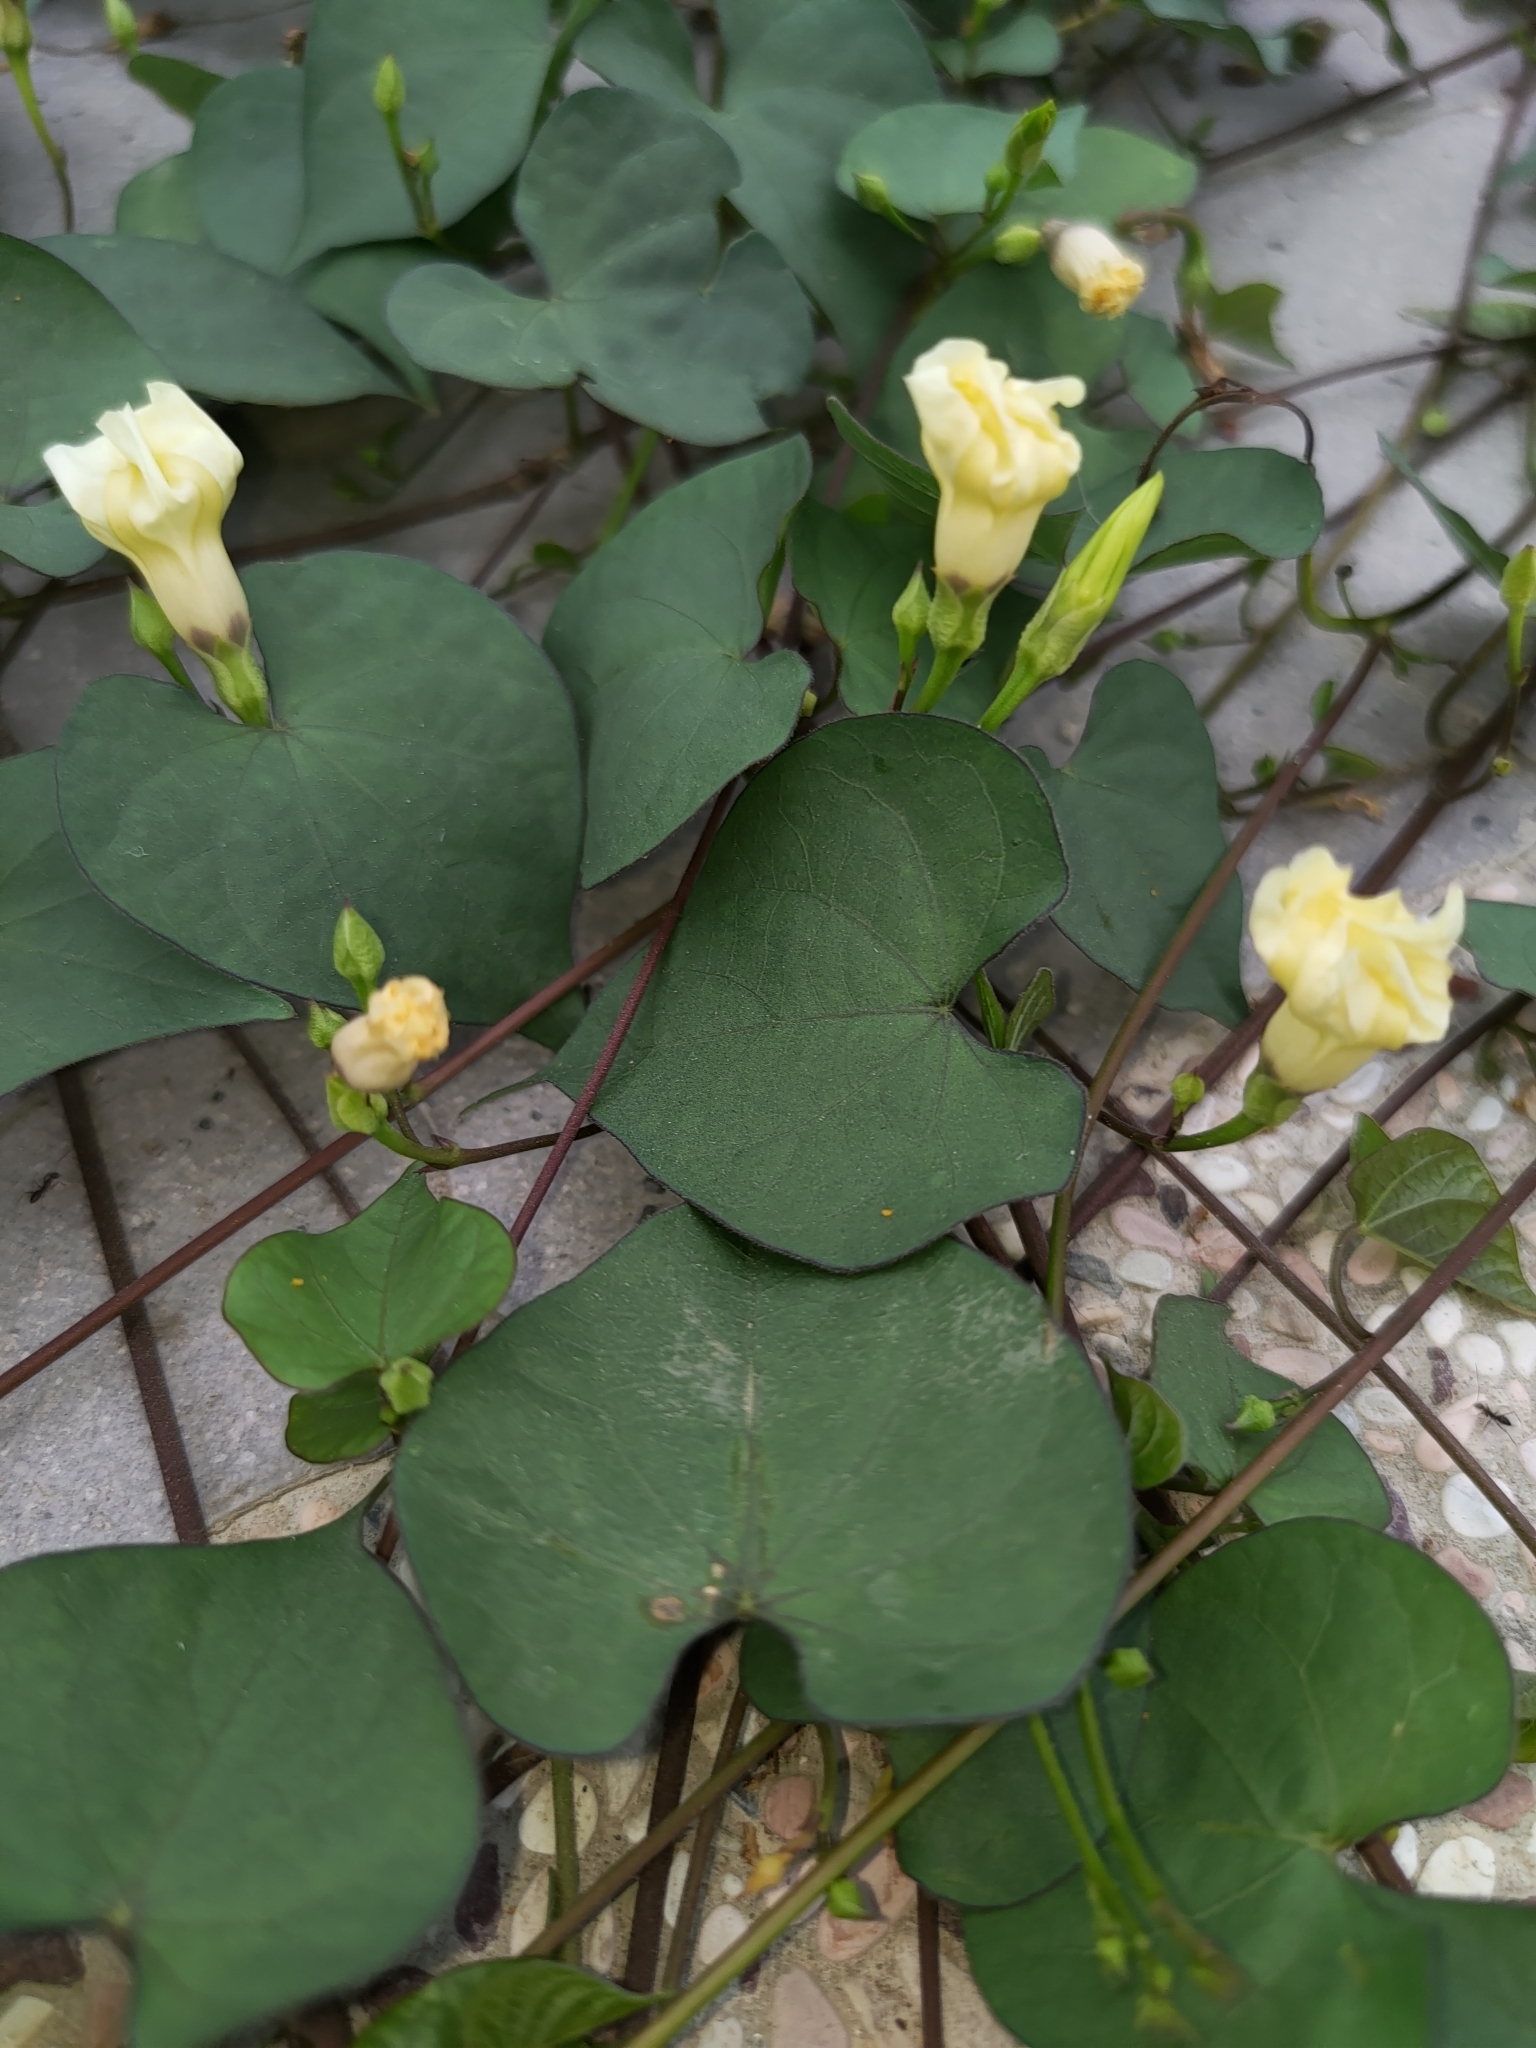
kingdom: Plantae
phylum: Tracheophyta
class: Magnoliopsida
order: Solanales
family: Convolvulaceae
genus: Ipomoea
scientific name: Ipomoea obscura
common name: Obscure morning-glory
